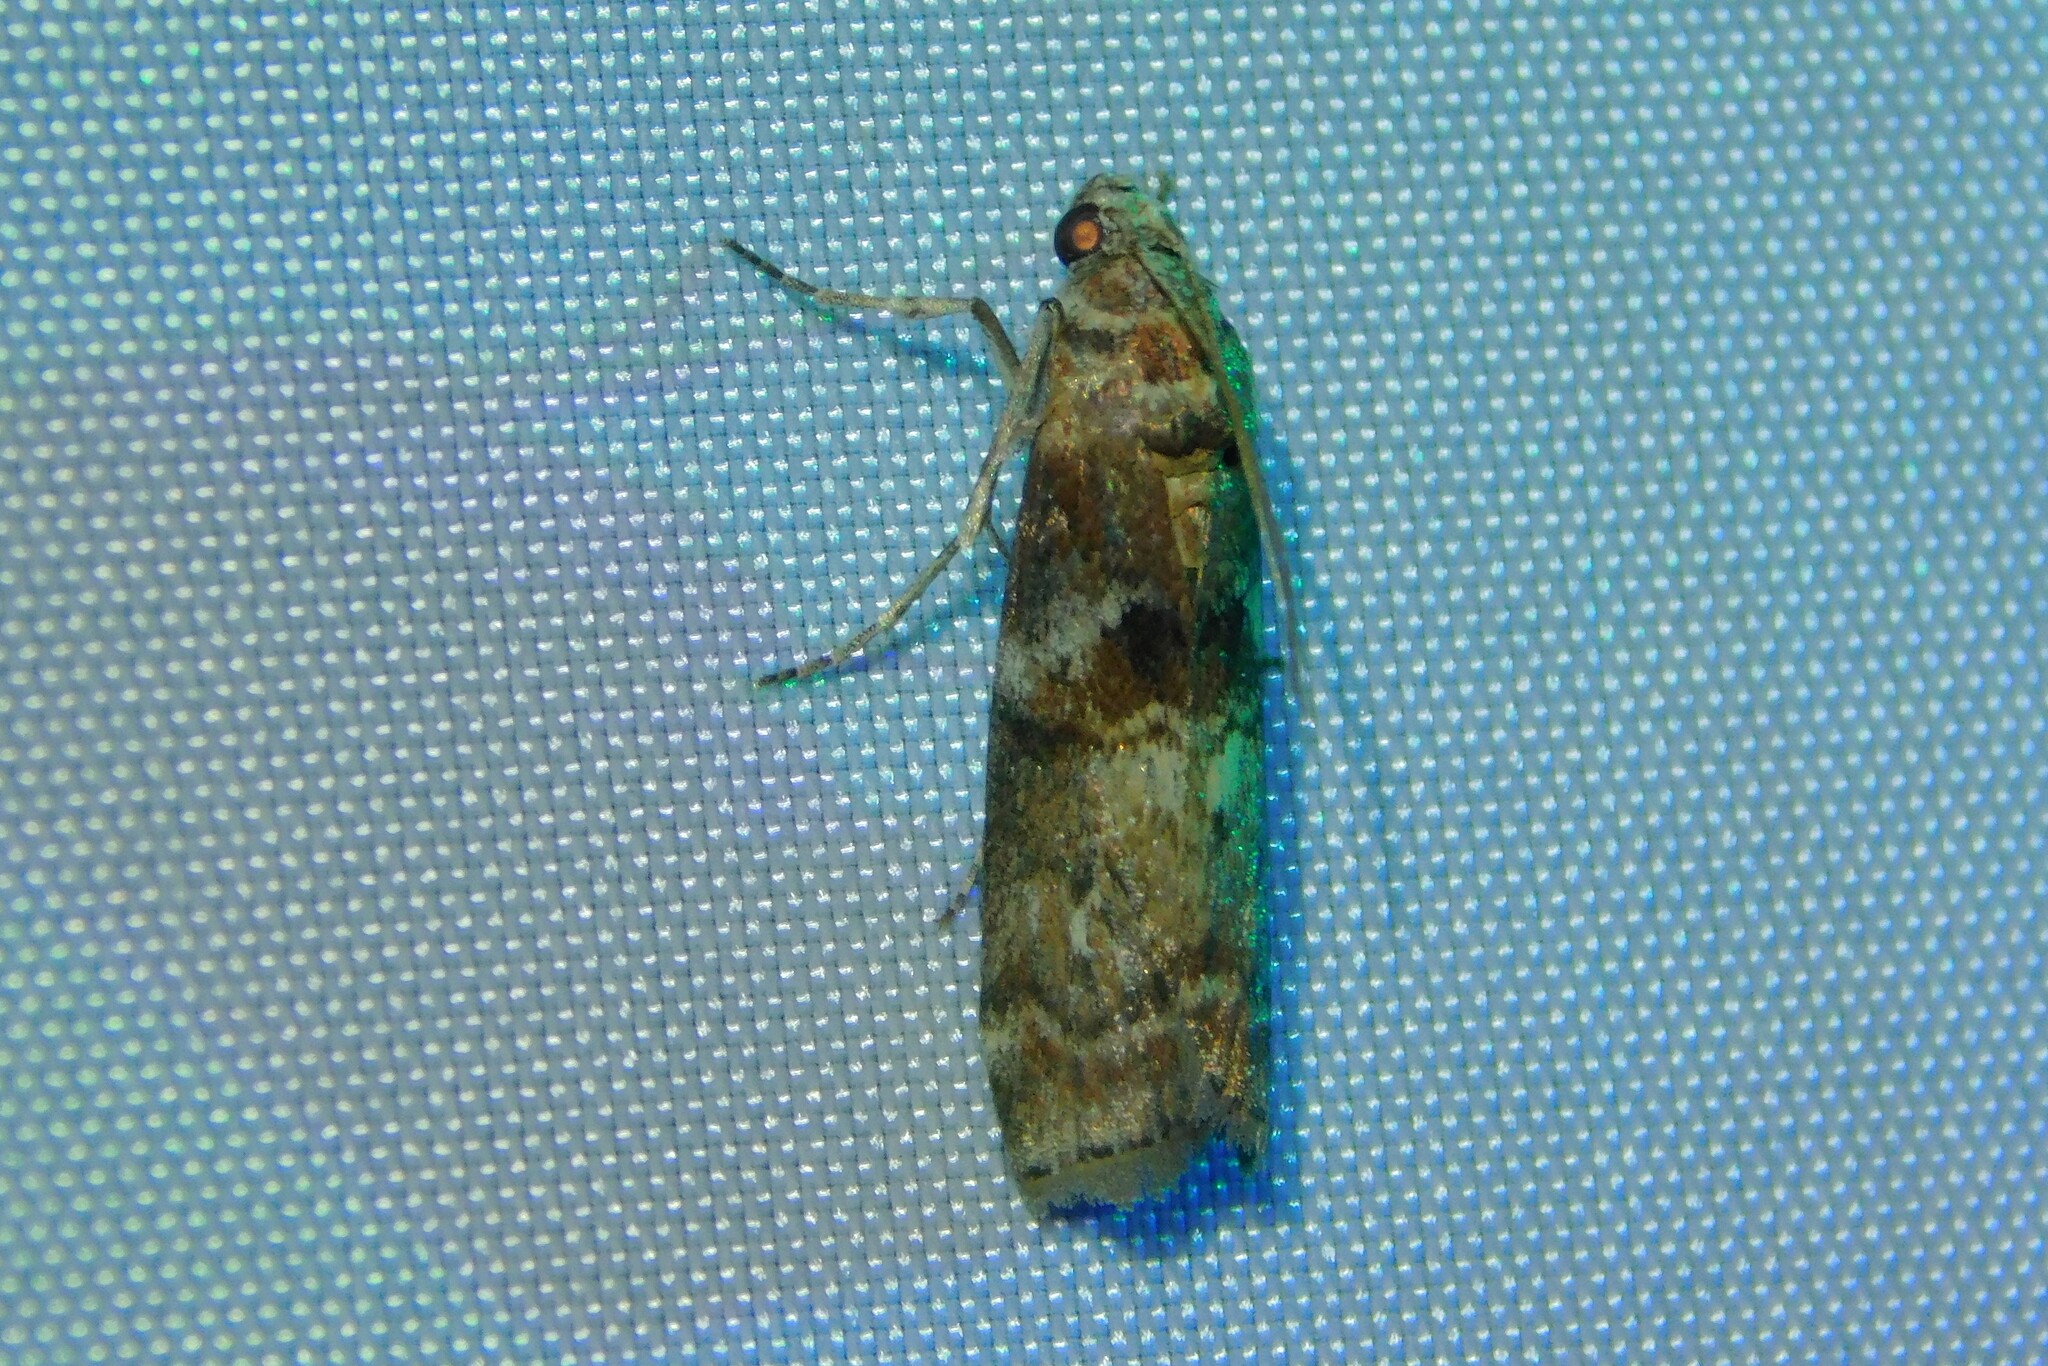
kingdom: Animalia
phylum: Arthropoda
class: Insecta
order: Lepidoptera
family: Pyralidae
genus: Phycita
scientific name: Phycita roborella
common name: Dotted oak knot-horn
